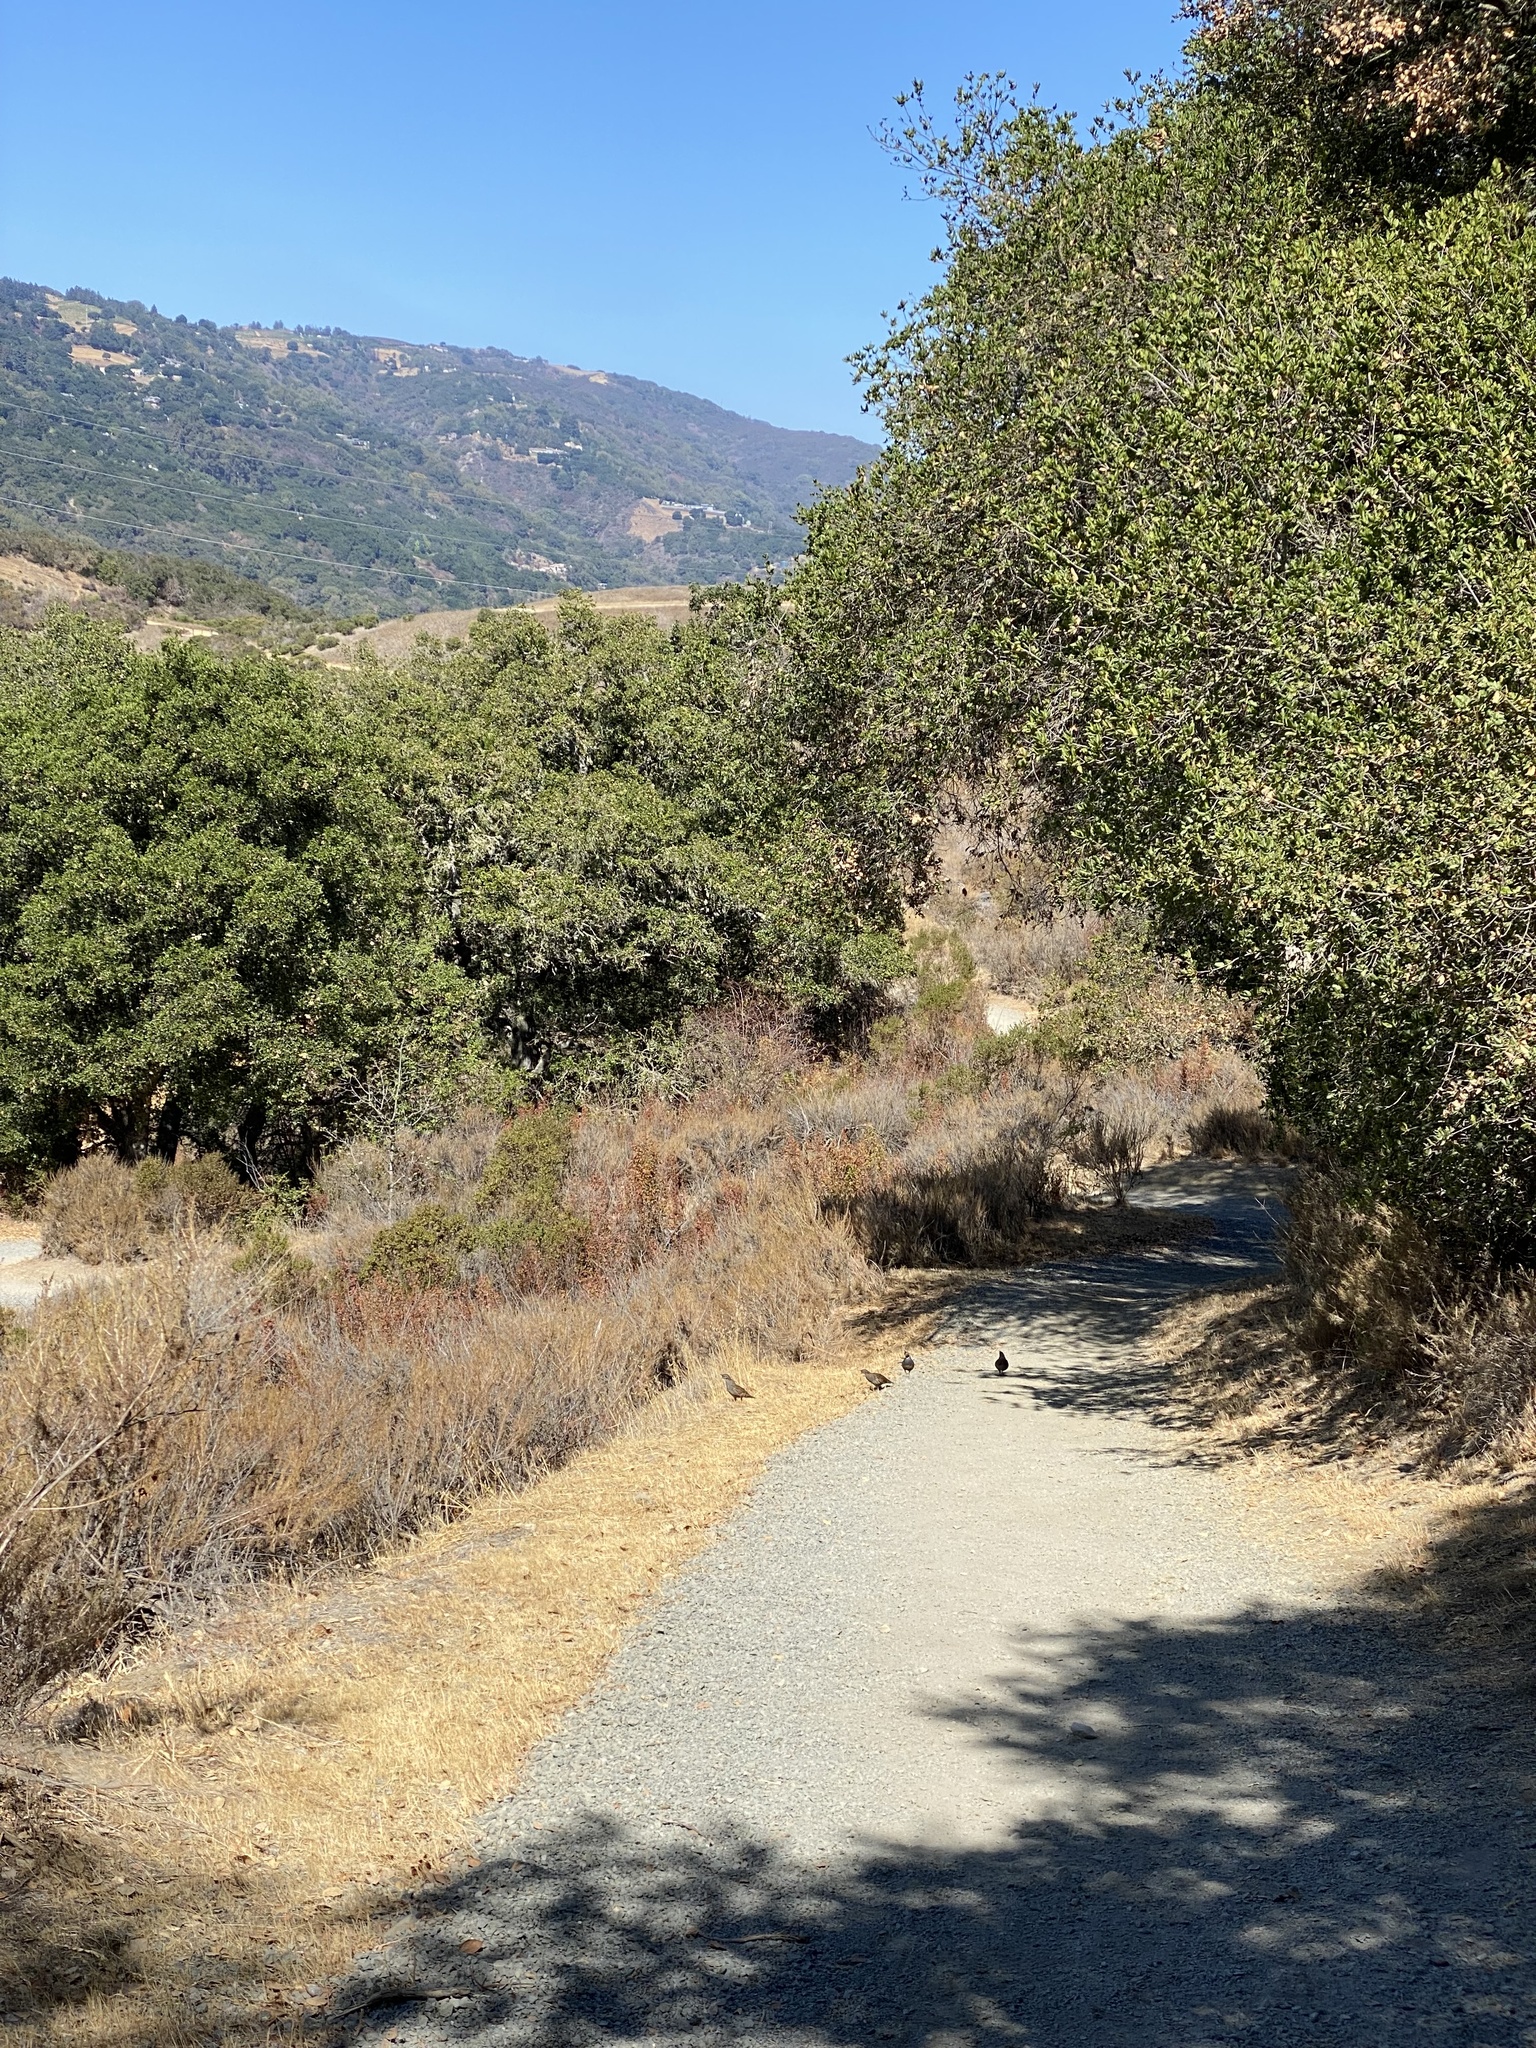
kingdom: Animalia
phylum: Chordata
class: Aves
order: Galliformes
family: Odontophoridae
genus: Callipepla
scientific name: Callipepla californica
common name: California quail
